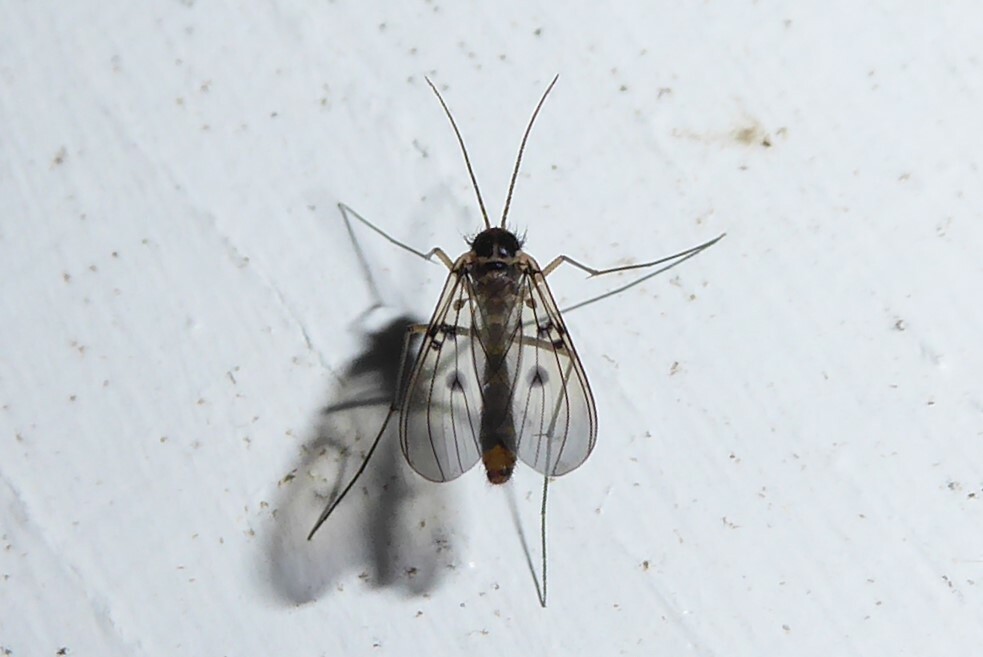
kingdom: Animalia
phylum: Arthropoda
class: Insecta
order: Diptera
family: Mycetophilidae
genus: Mycomya
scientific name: Mycomya quadrimaculata
